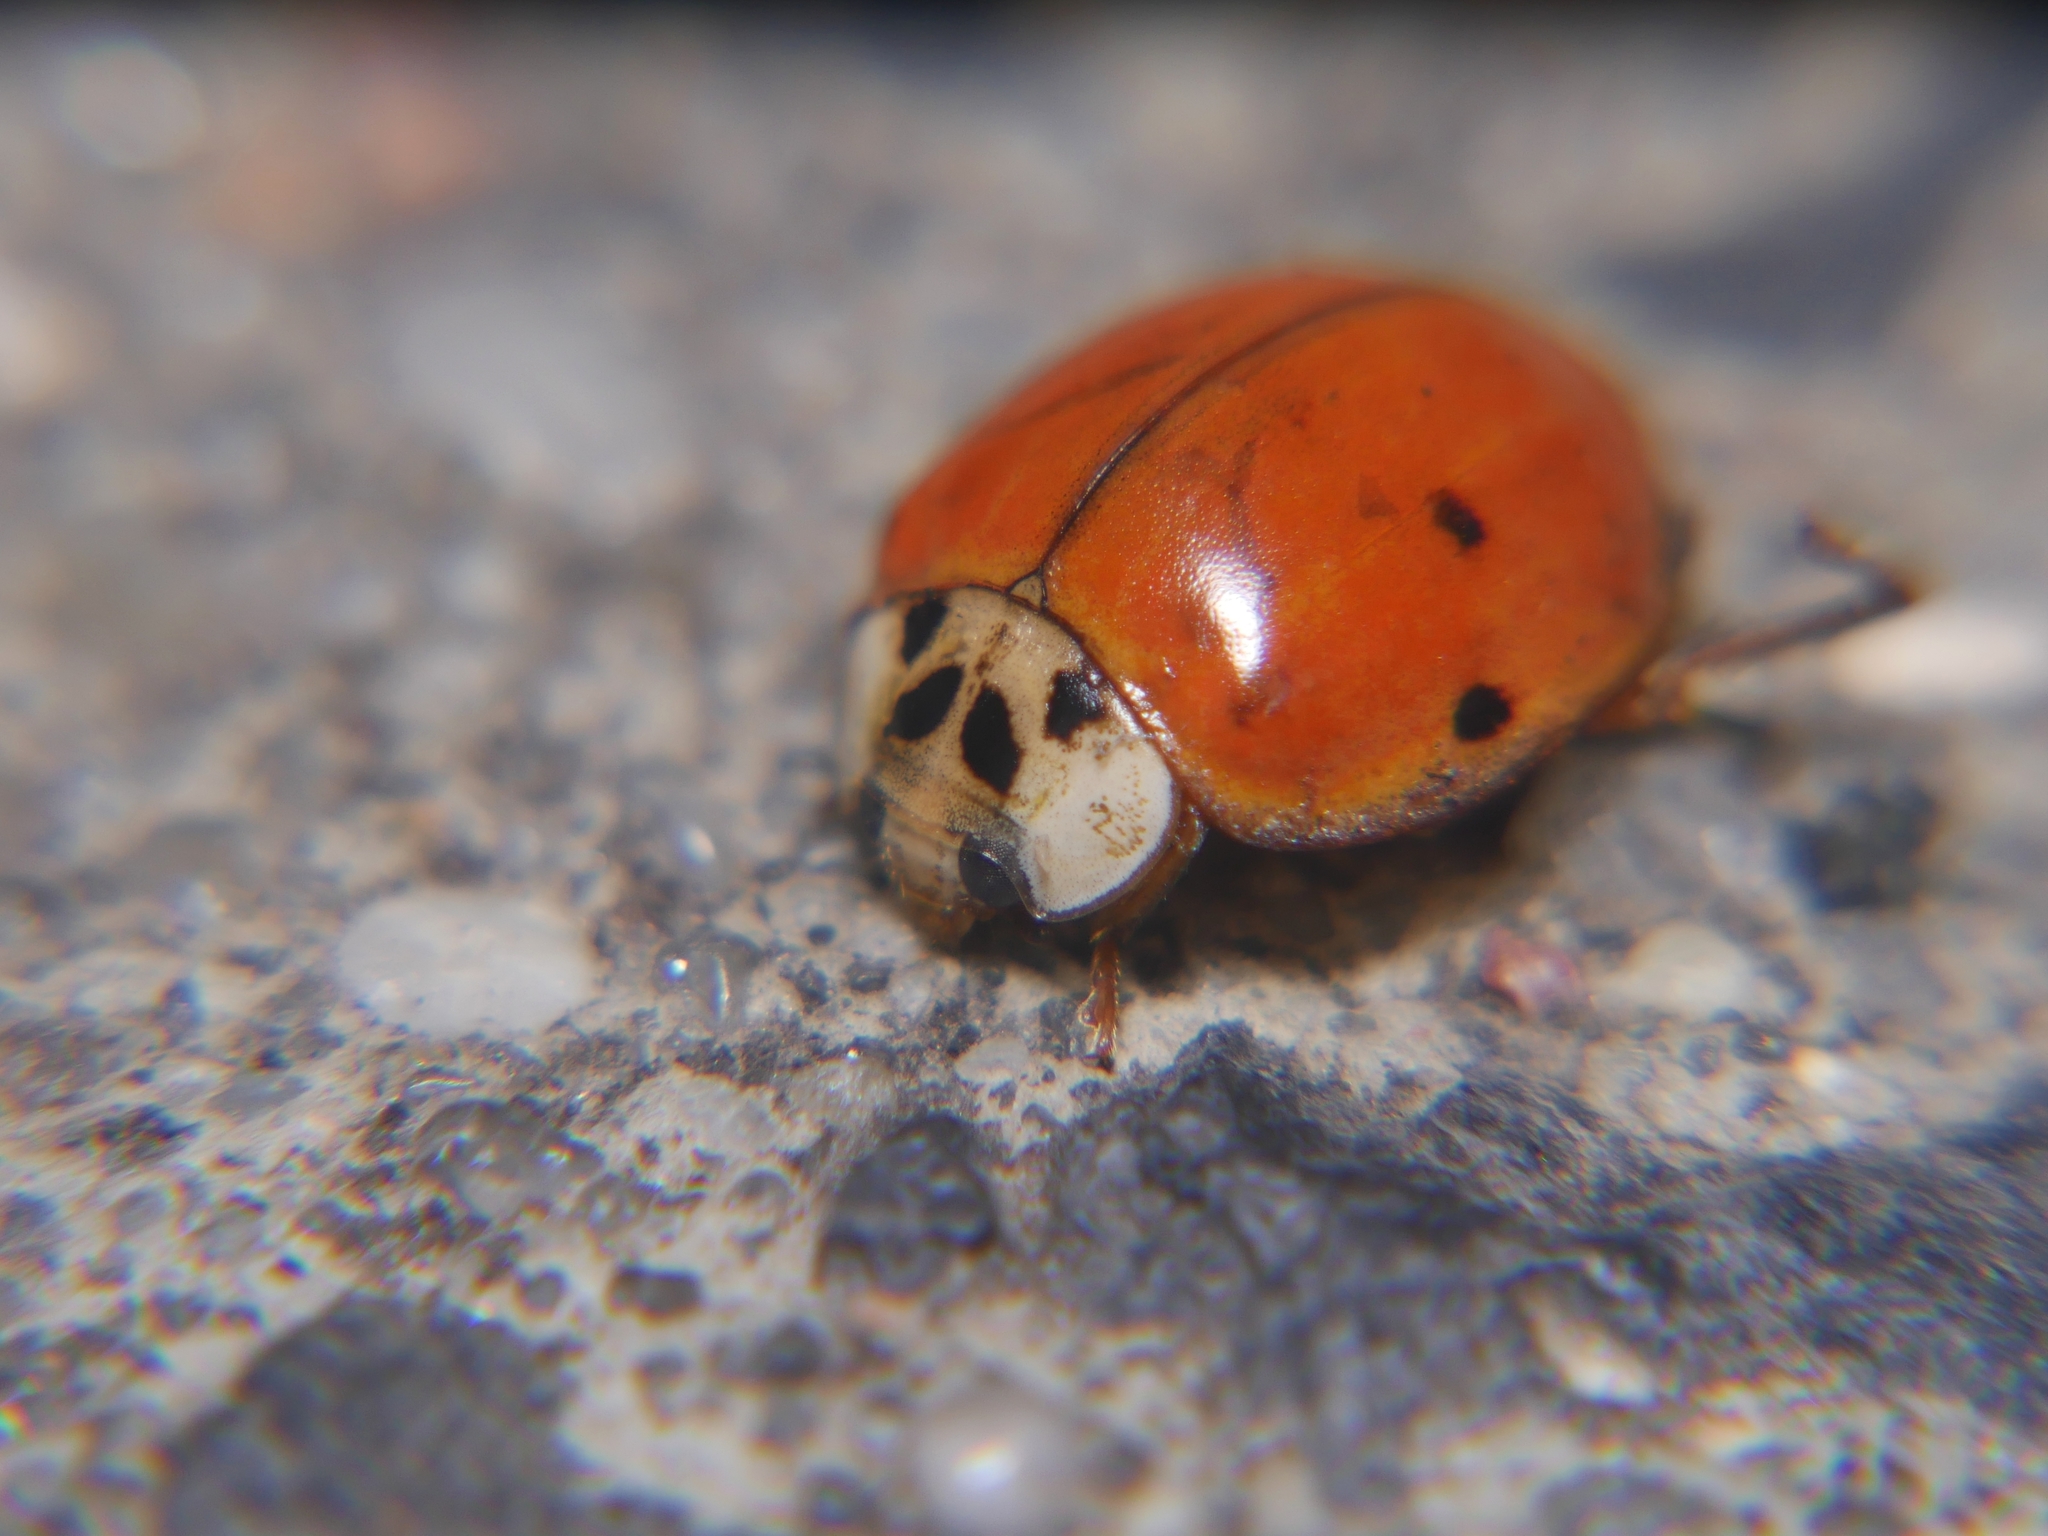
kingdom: Animalia
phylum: Arthropoda
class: Insecta
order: Coleoptera
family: Coccinellidae
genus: Harmonia
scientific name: Harmonia axyridis
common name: Harlequin ladybird
